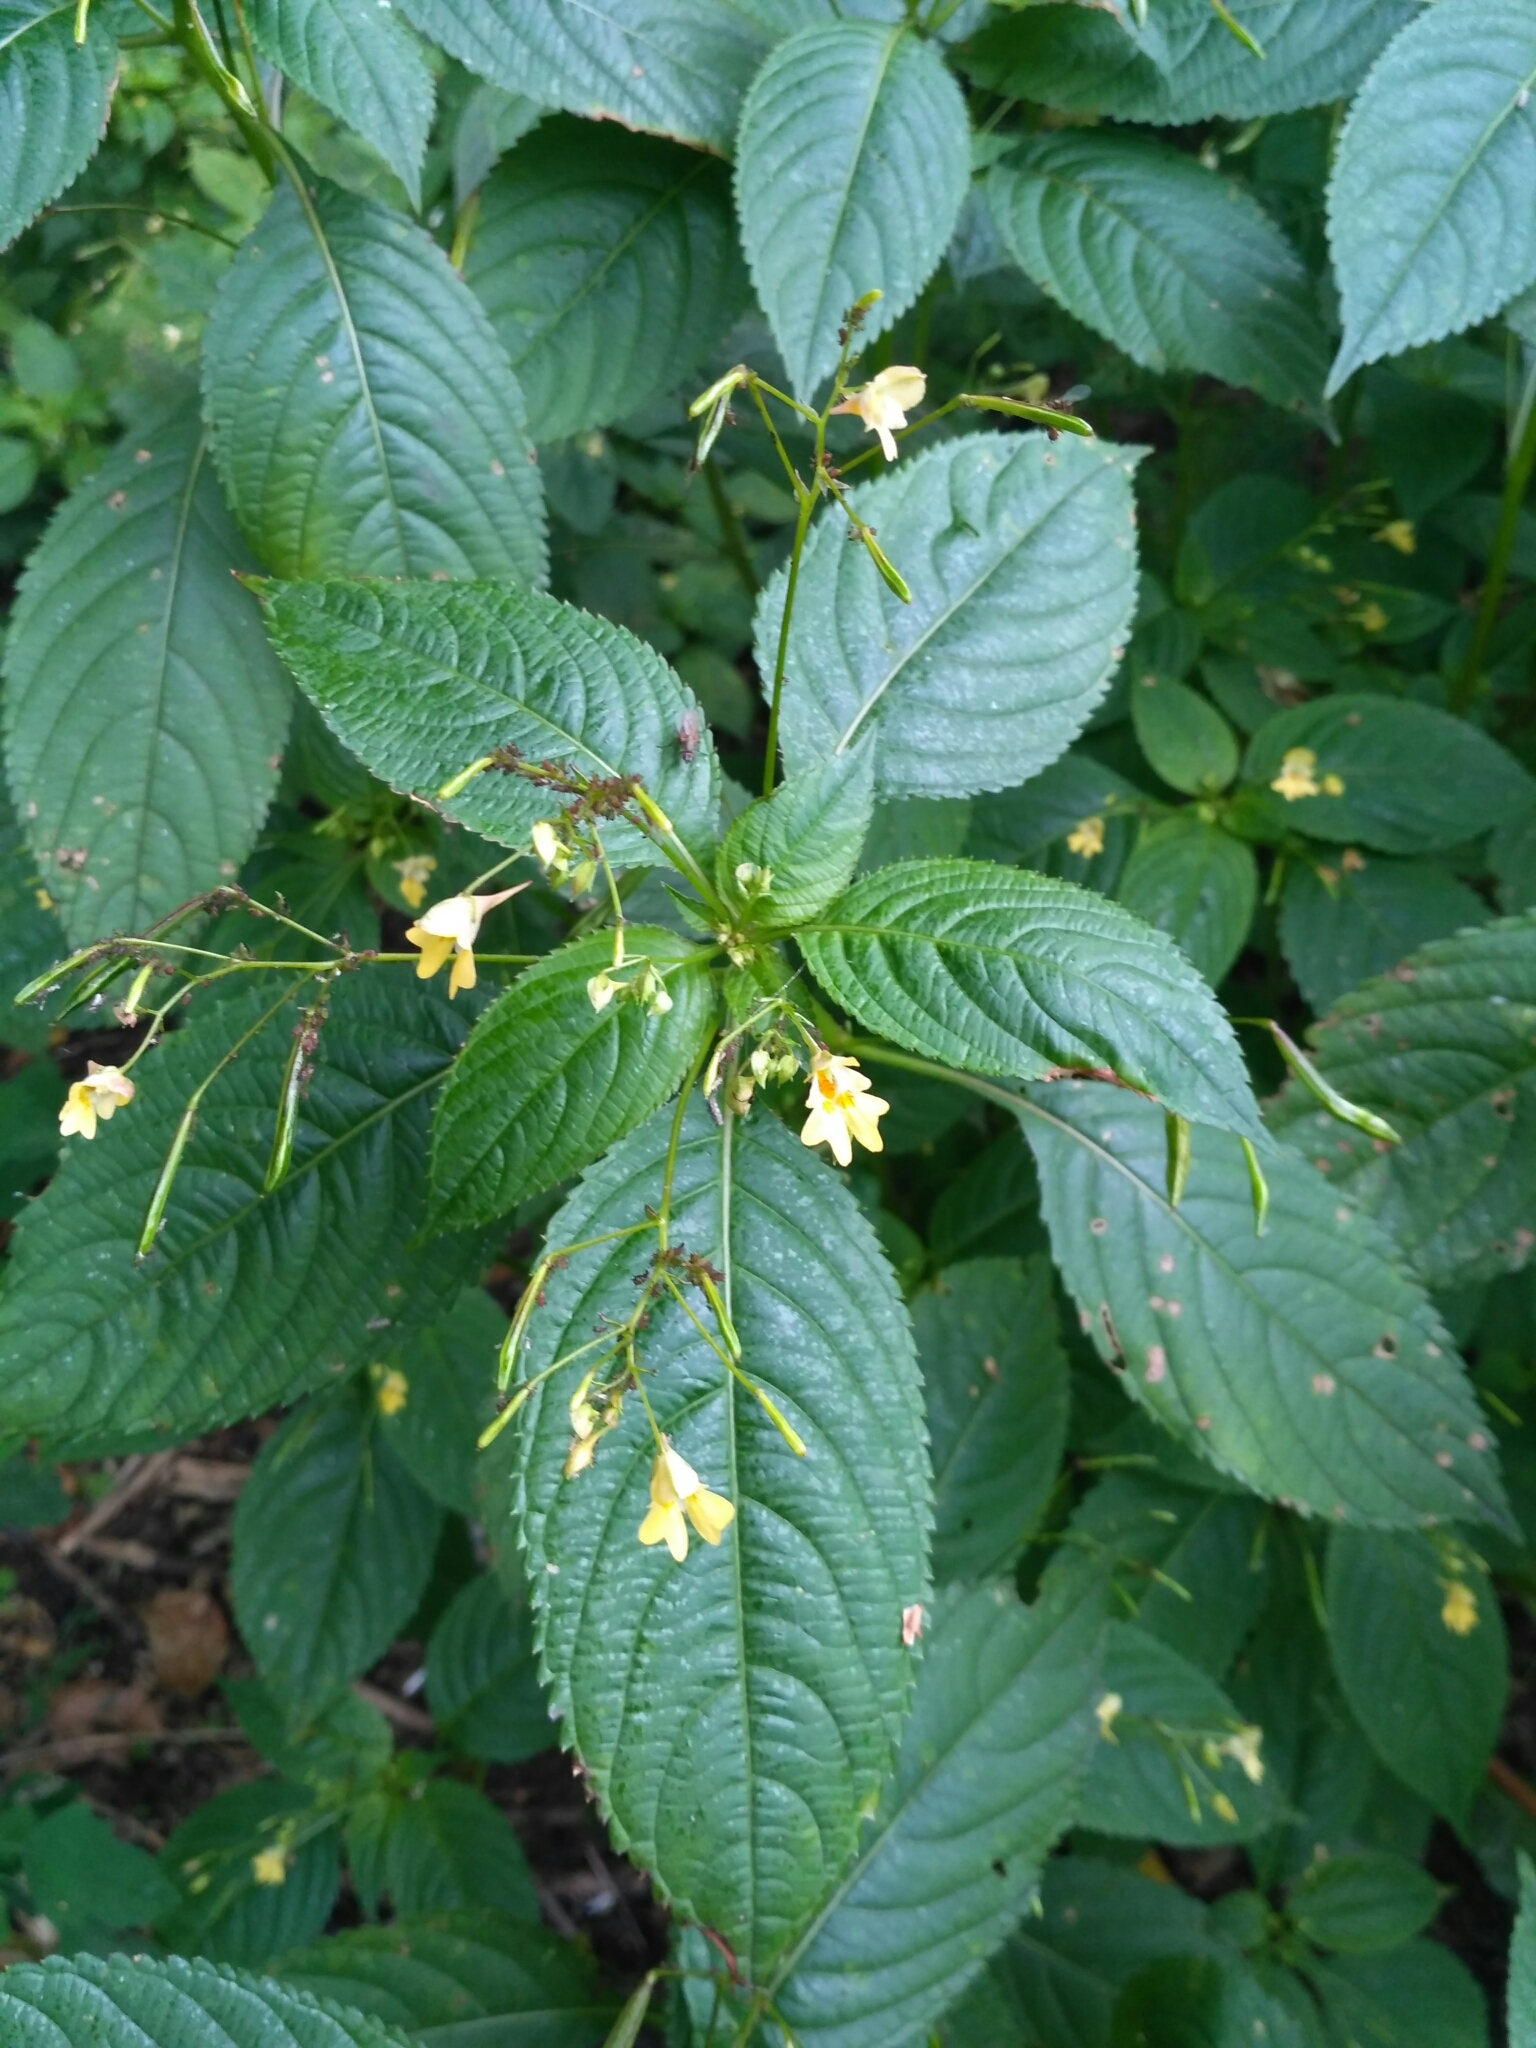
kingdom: Plantae
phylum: Tracheophyta
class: Magnoliopsida
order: Ericales
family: Balsaminaceae
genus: Impatiens
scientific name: Impatiens parviflora
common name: Small balsam
